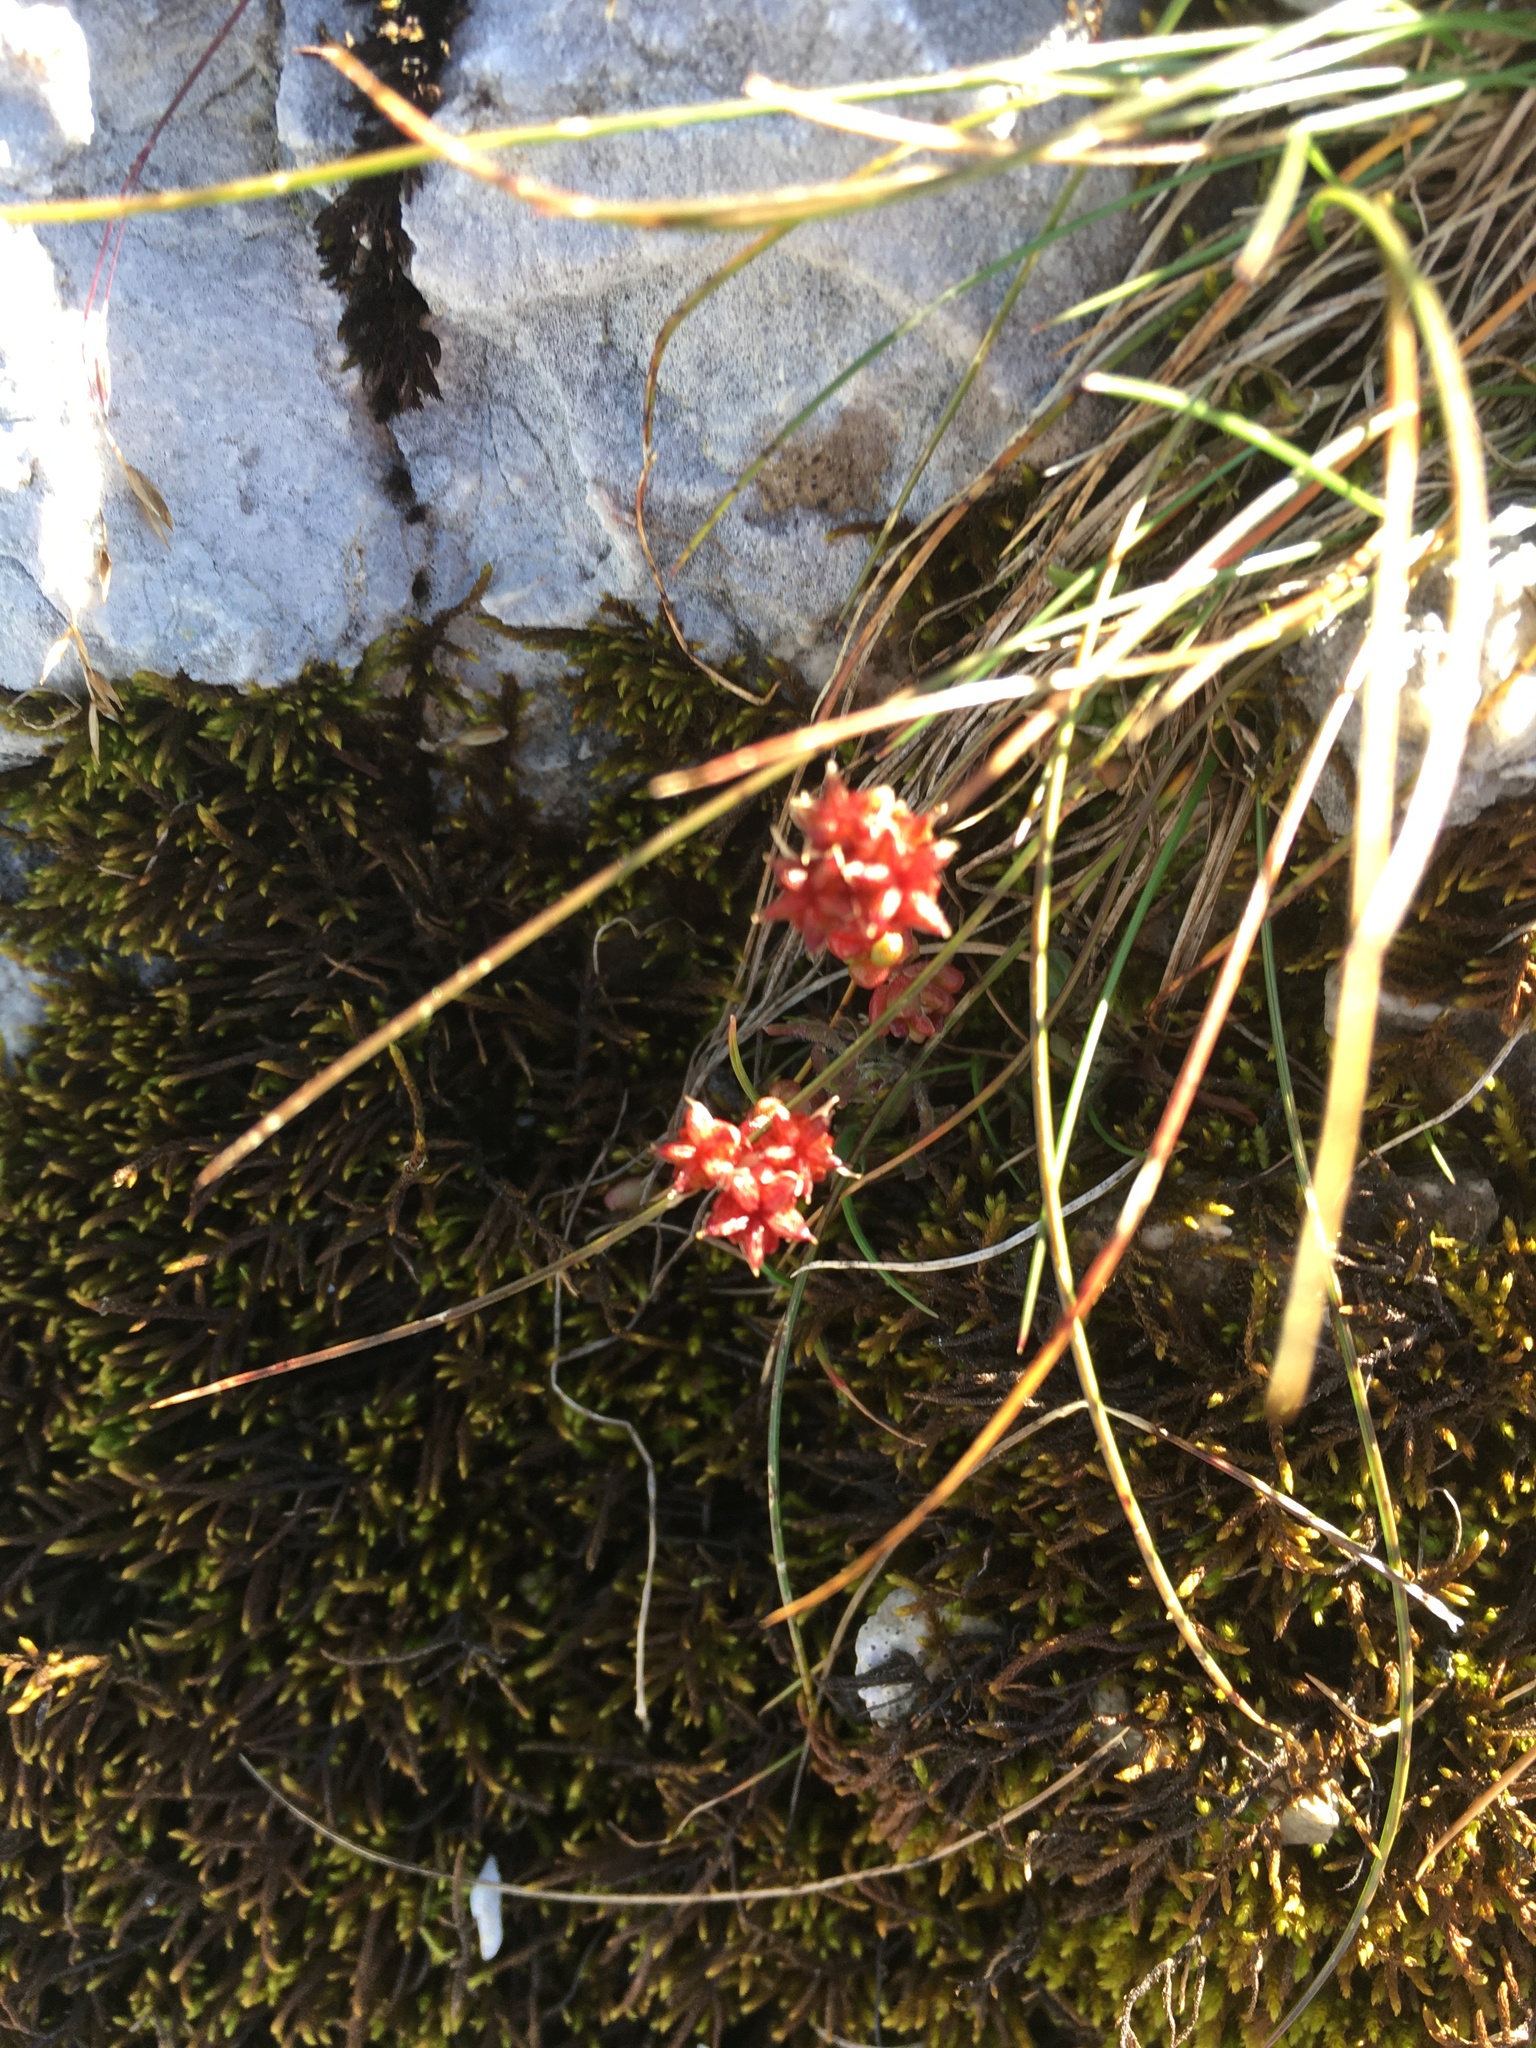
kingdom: Plantae
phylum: Tracheophyta
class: Magnoliopsida
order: Saxifragales
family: Crassulaceae
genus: Sedum
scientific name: Sedum atratum
